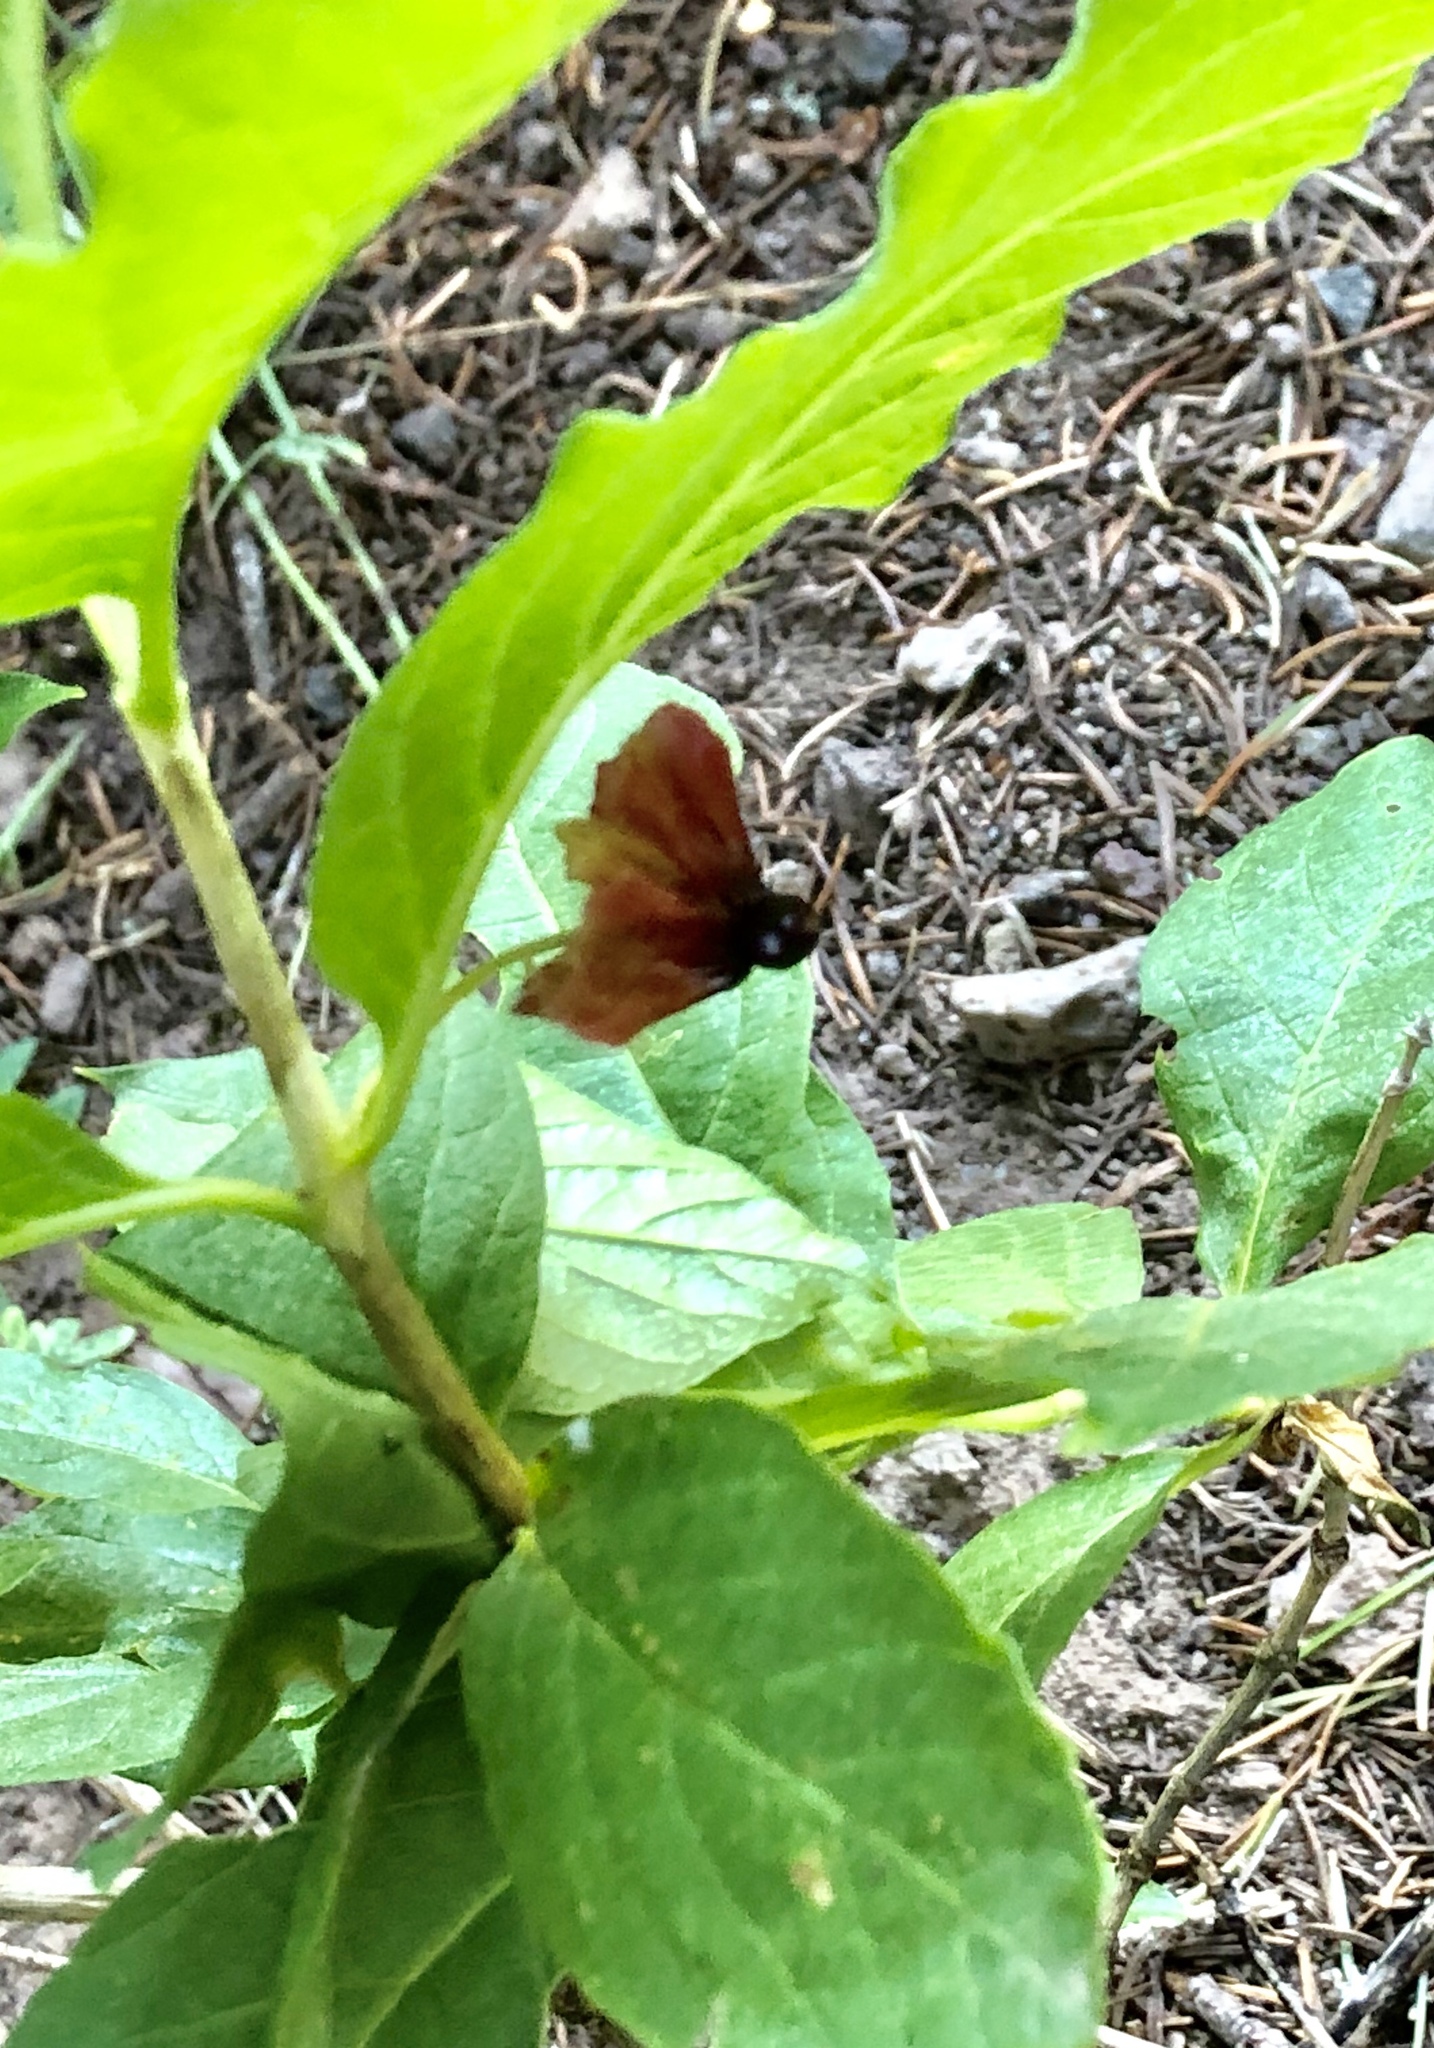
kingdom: Plantae
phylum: Tracheophyta
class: Magnoliopsida
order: Dipsacales
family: Caprifoliaceae
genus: Lonicera
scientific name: Lonicera involucrata
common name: Californian honeysuckle
